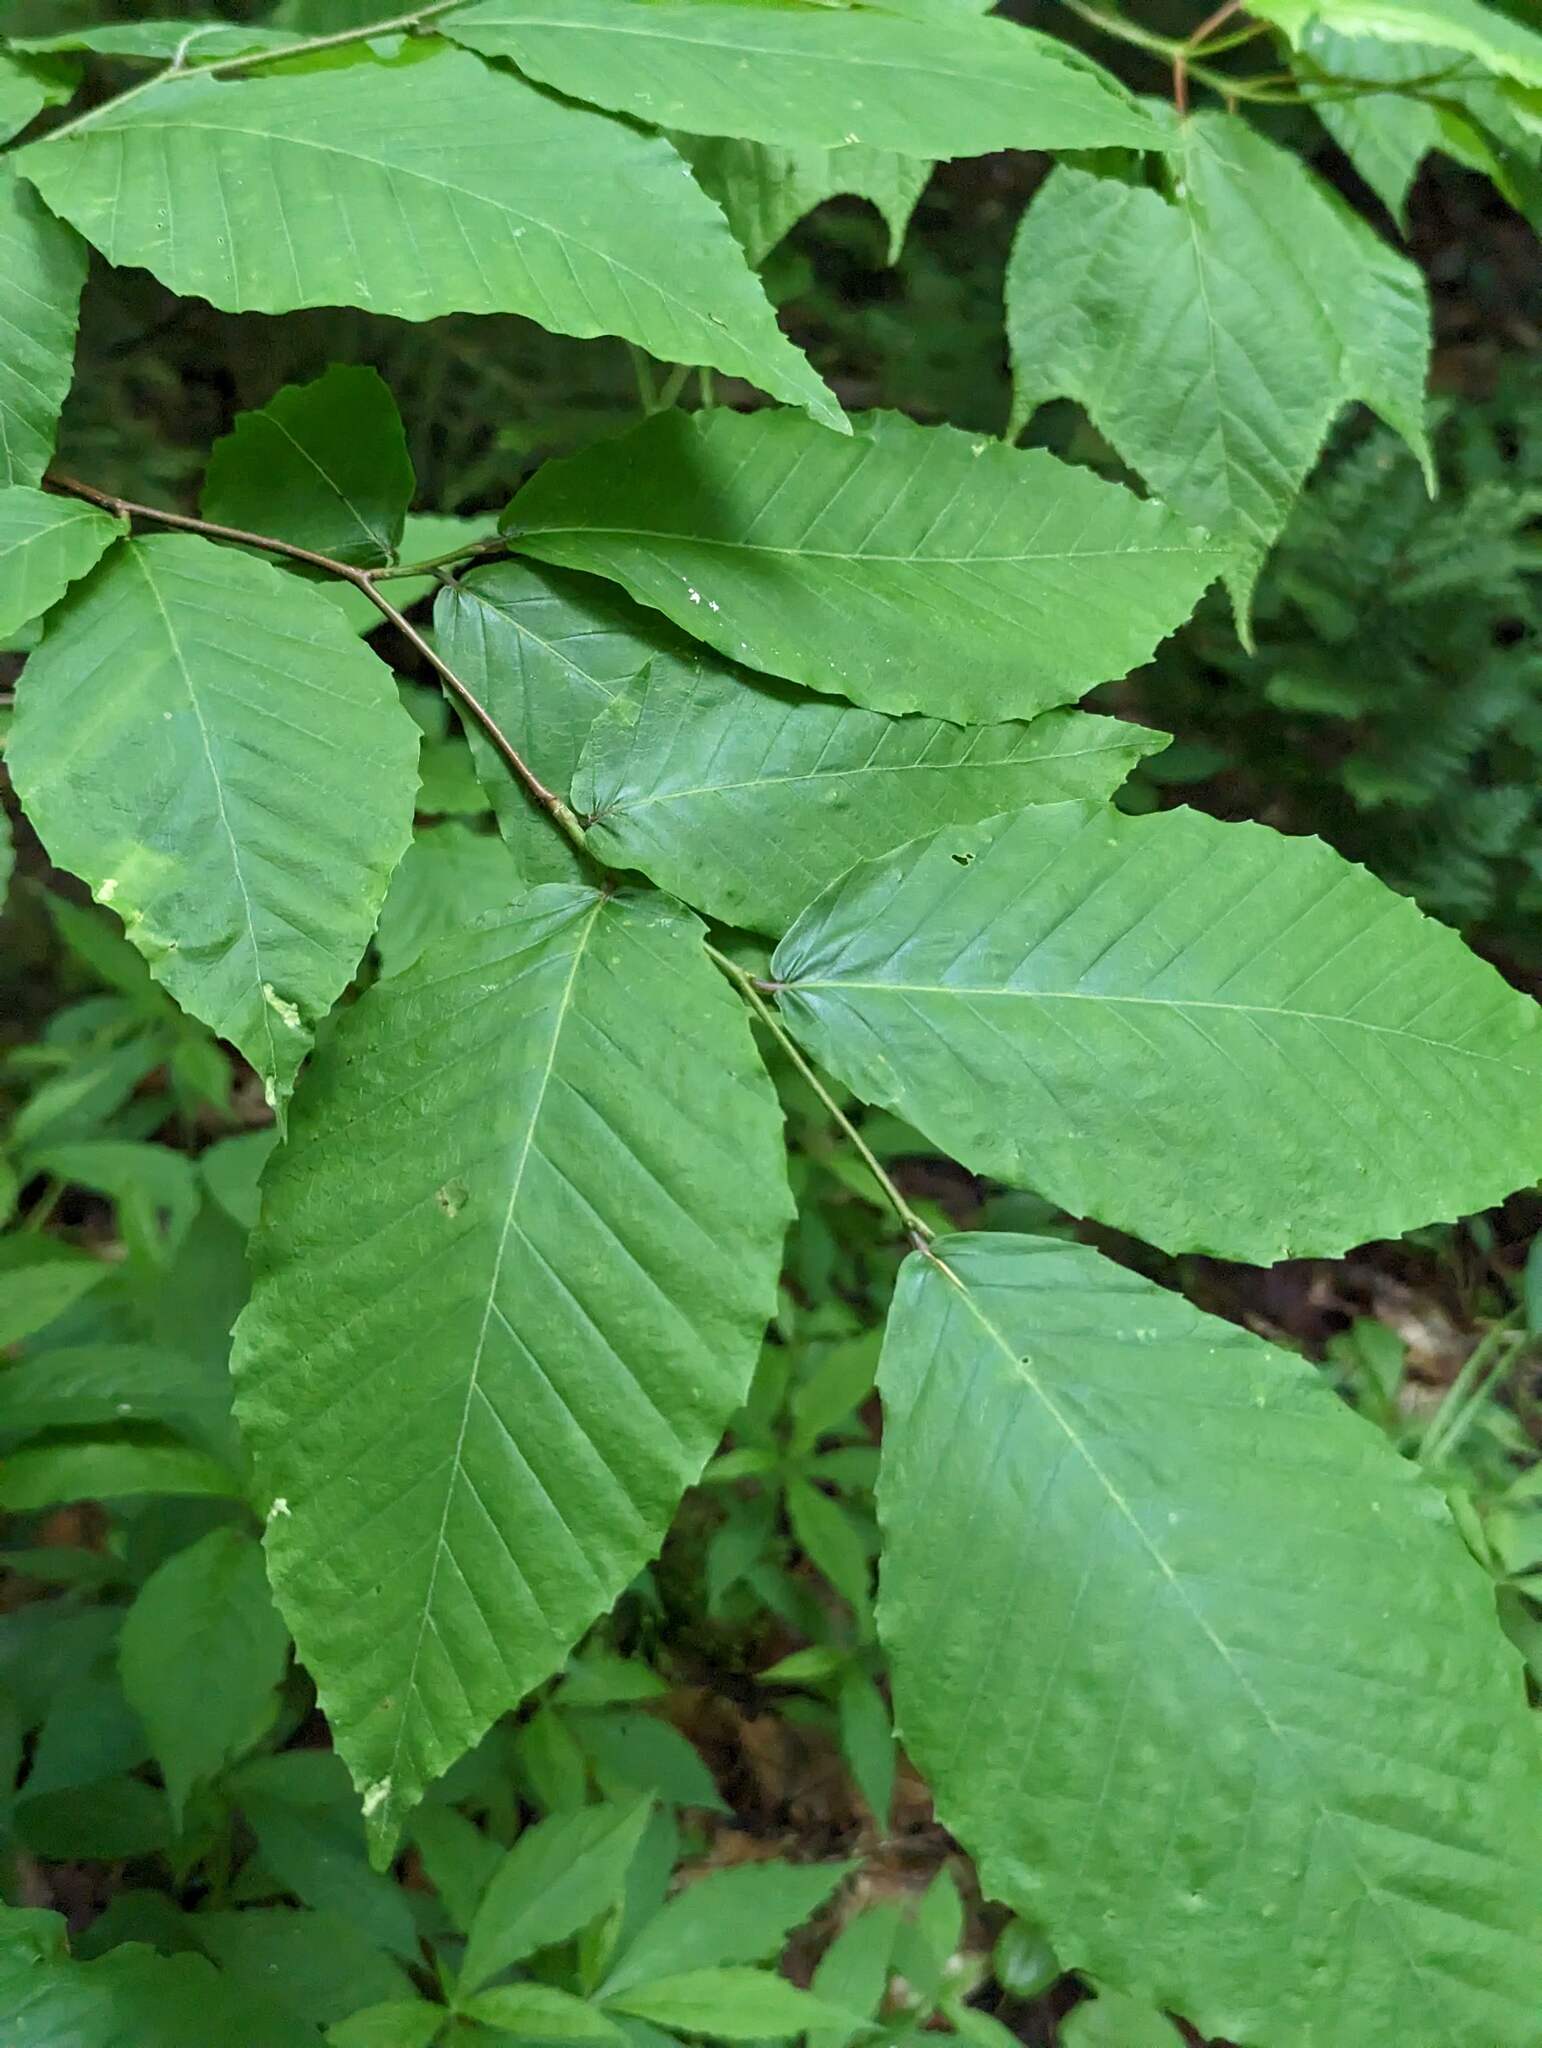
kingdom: Plantae
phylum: Tracheophyta
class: Magnoliopsida
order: Fagales
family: Fagaceae
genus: Fagus
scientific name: Fagus grandifolia
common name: American beech
